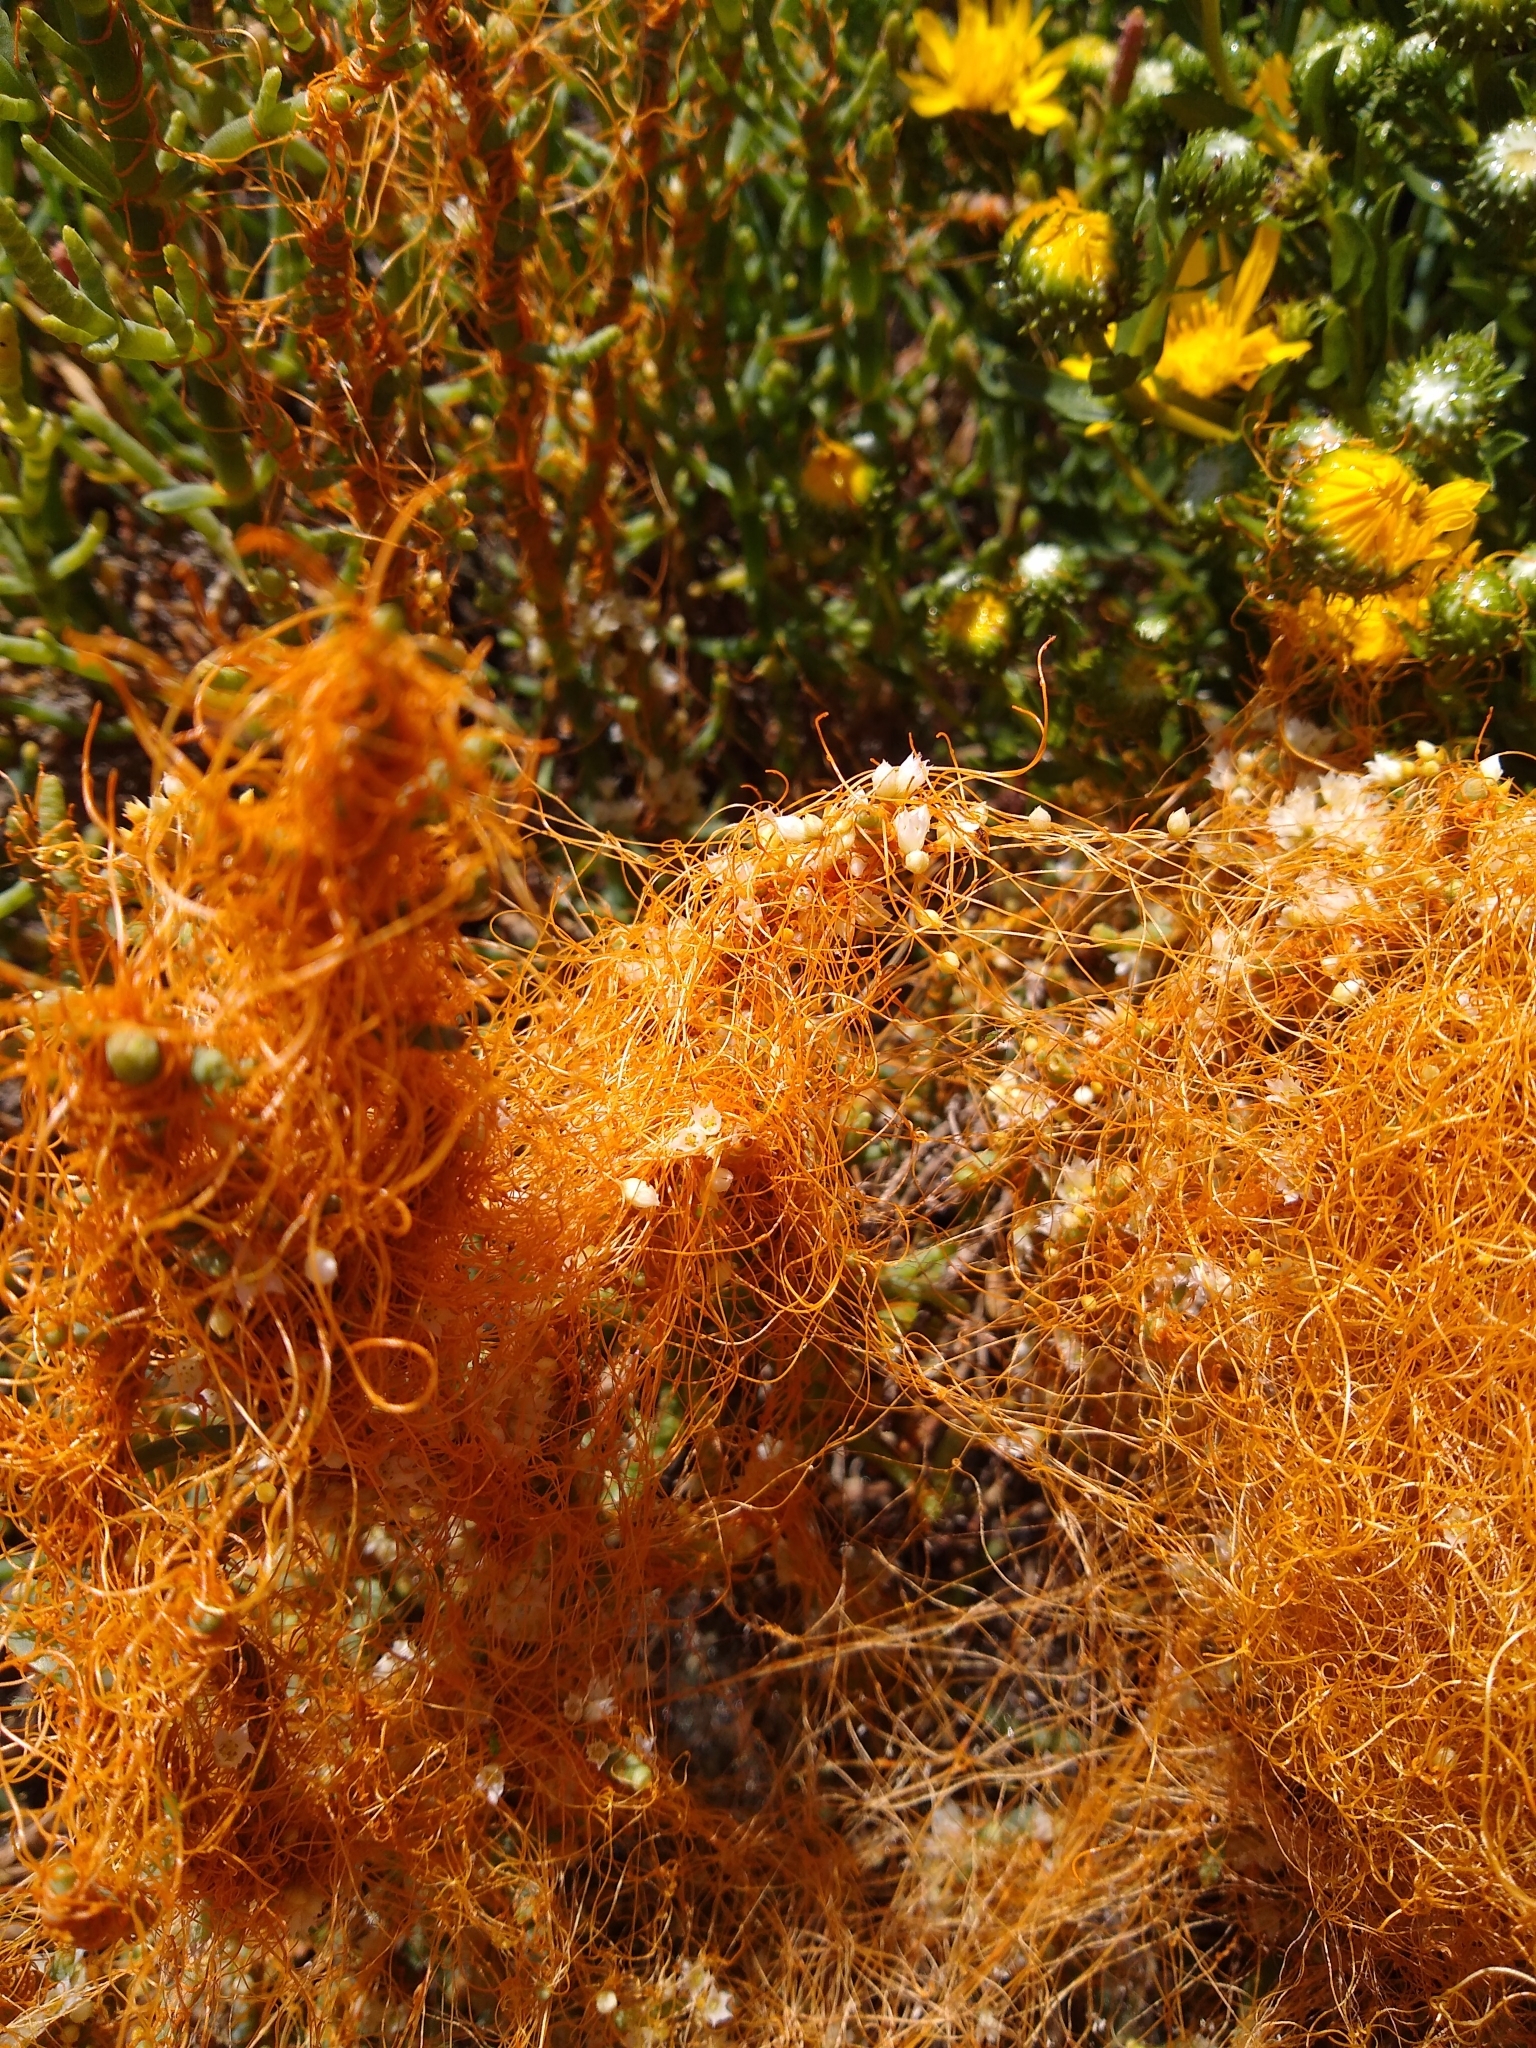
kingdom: Plantae
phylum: Tracheophyta
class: Magnoliopsida
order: Solanales
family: Convolvulaceae
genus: Cuscuta
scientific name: Cuscuta pacifica
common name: Large saltmarsh dodder
